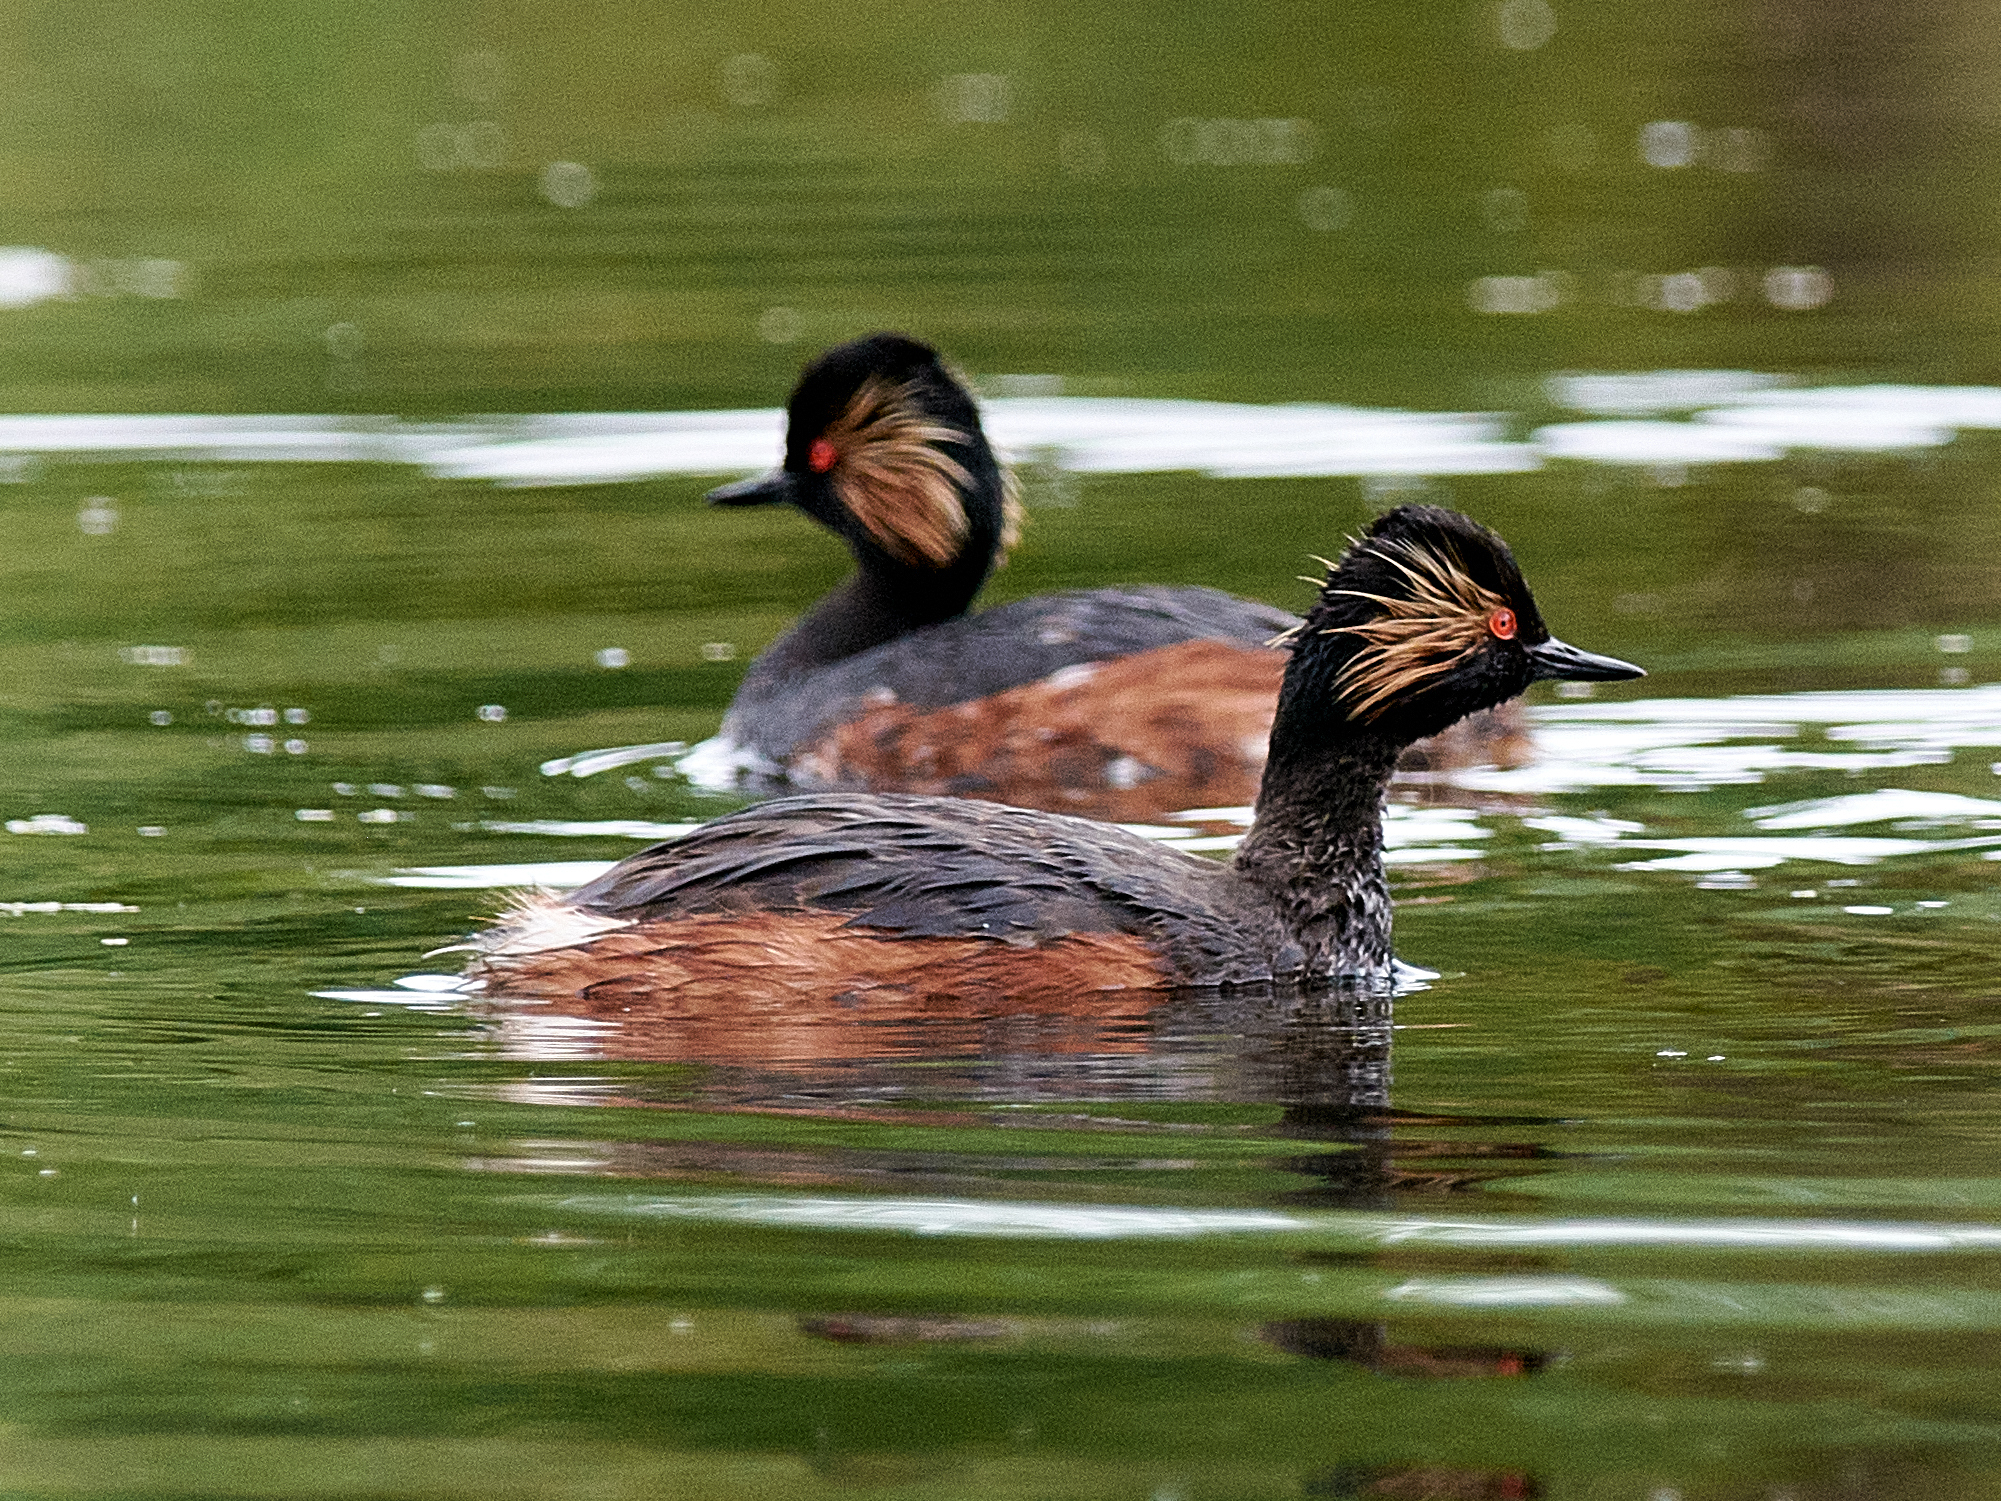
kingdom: Animalia
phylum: Chordata
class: Aves
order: Podicipediformes
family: Podicipedidae
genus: Podiceps
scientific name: Podiceps nigricollis
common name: Black-necked grebe
